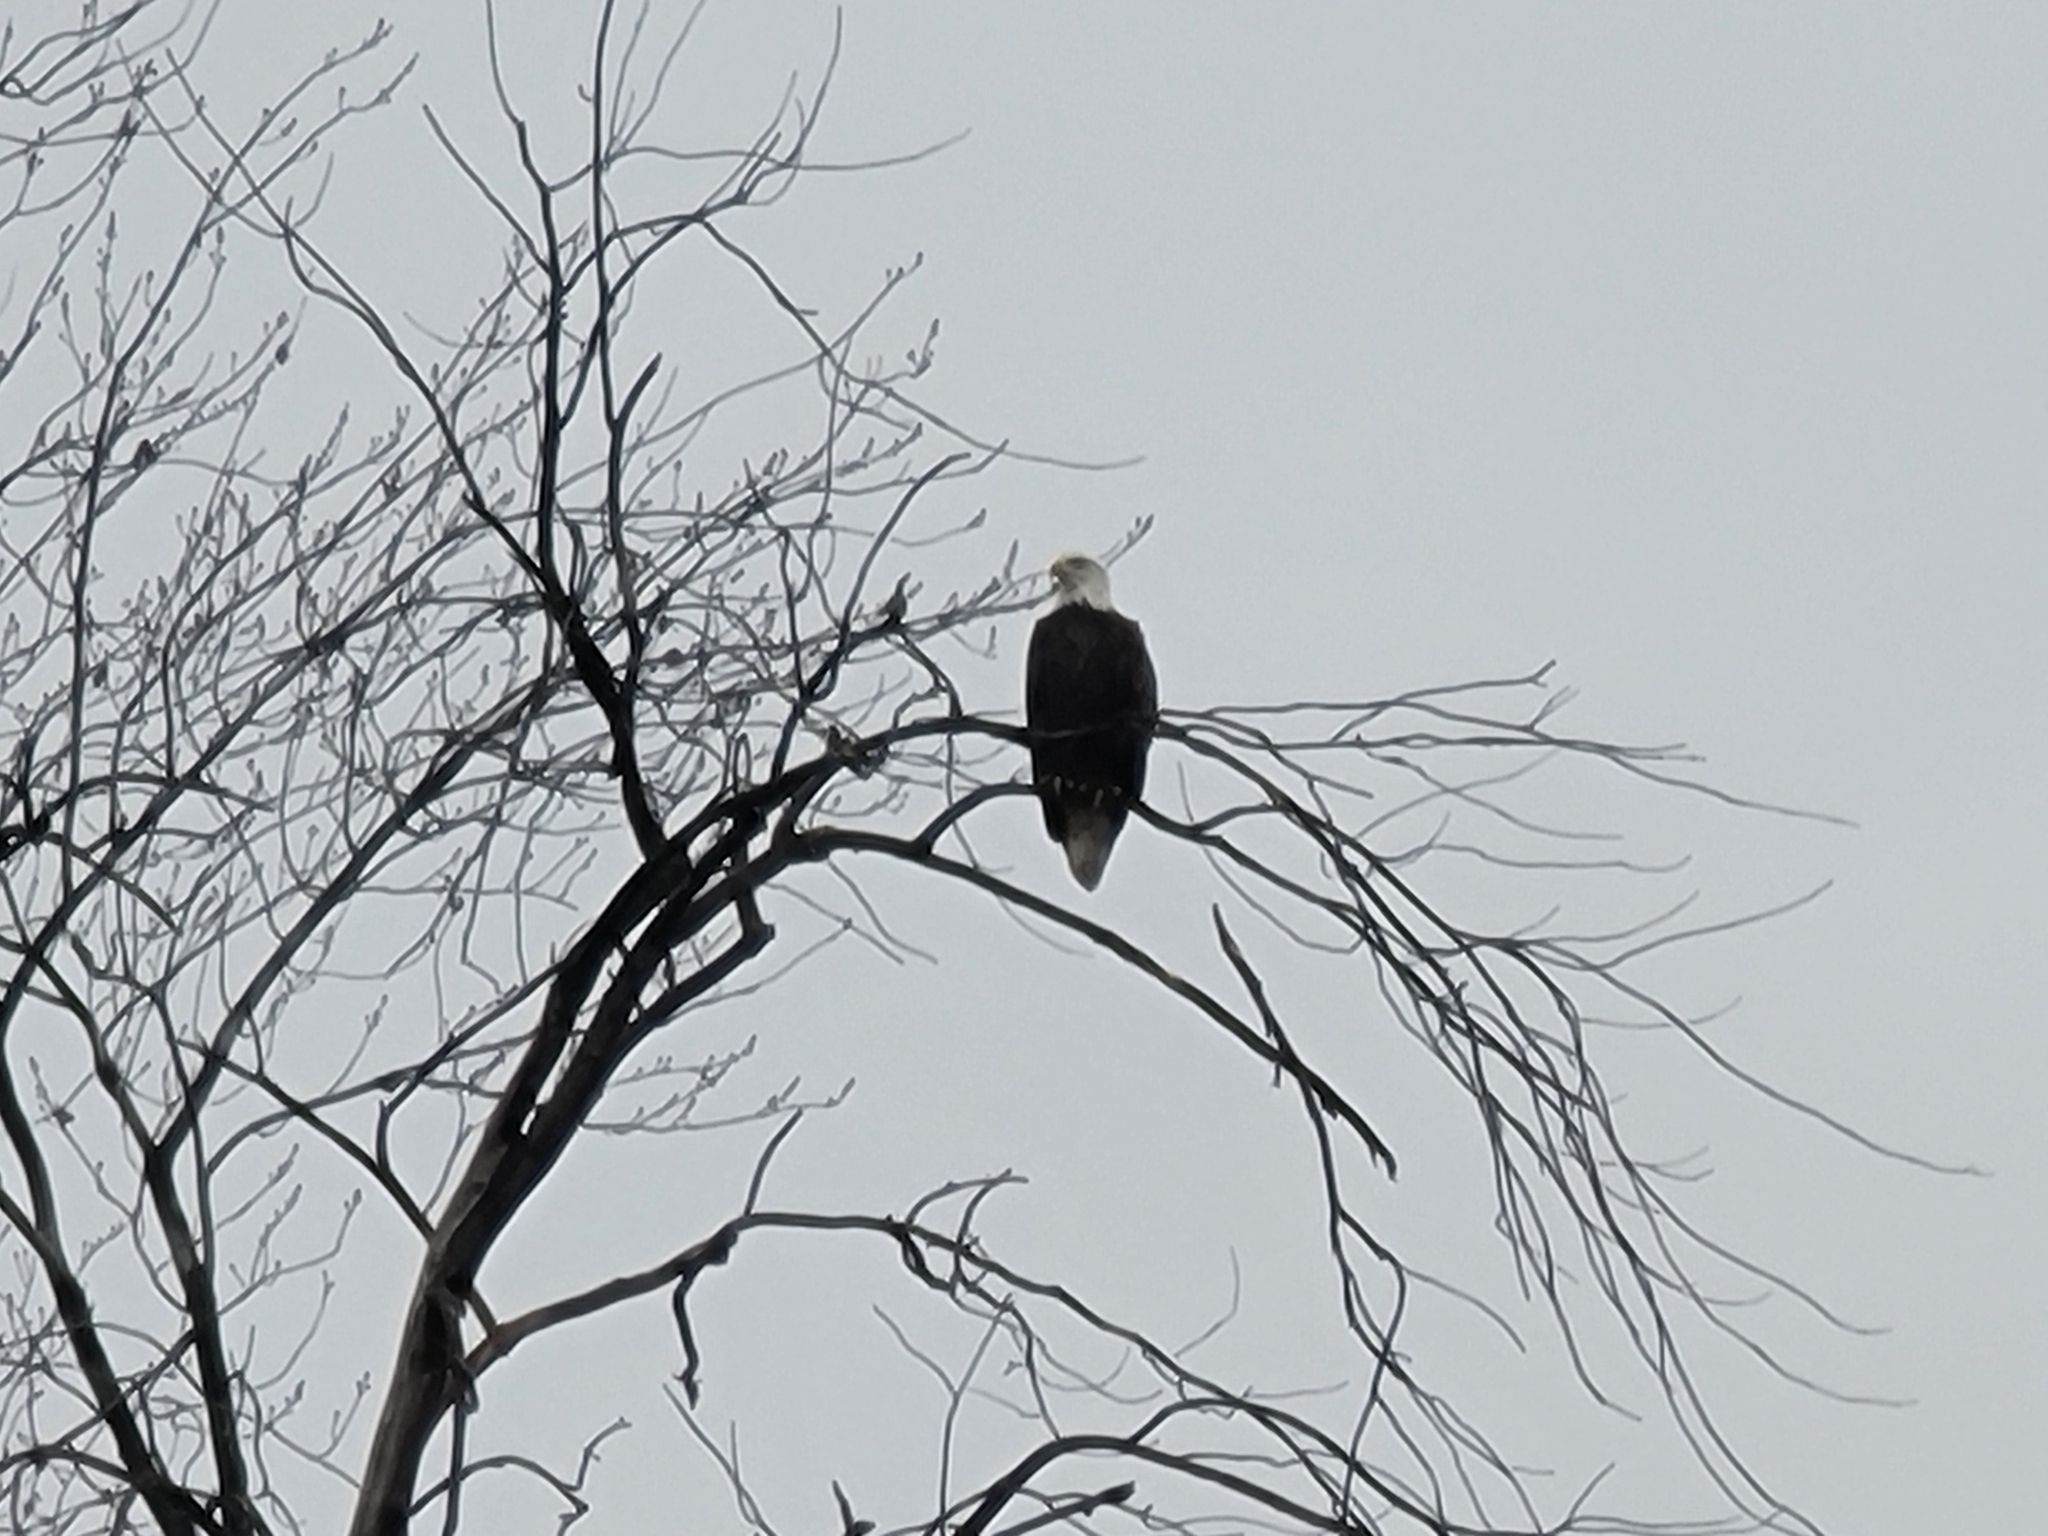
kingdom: Animalia
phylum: Chordata
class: Aves
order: Accipitriformes
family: Accipitridae
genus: Haliaeetus
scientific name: Haliaeetus leucocephalus
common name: Bald eagle
